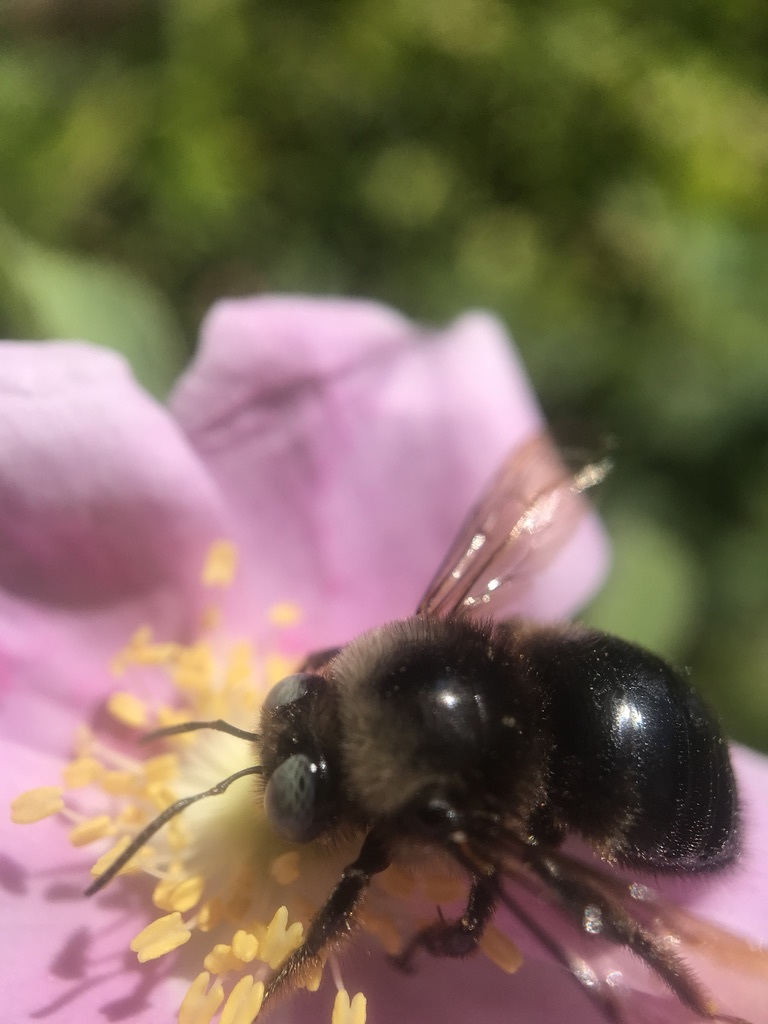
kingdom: Animalia
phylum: Arthropoda
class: Insecta
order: Hymenoptera
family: Apidae
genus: Xylocopa
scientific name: Xylocopa tabaniformis
